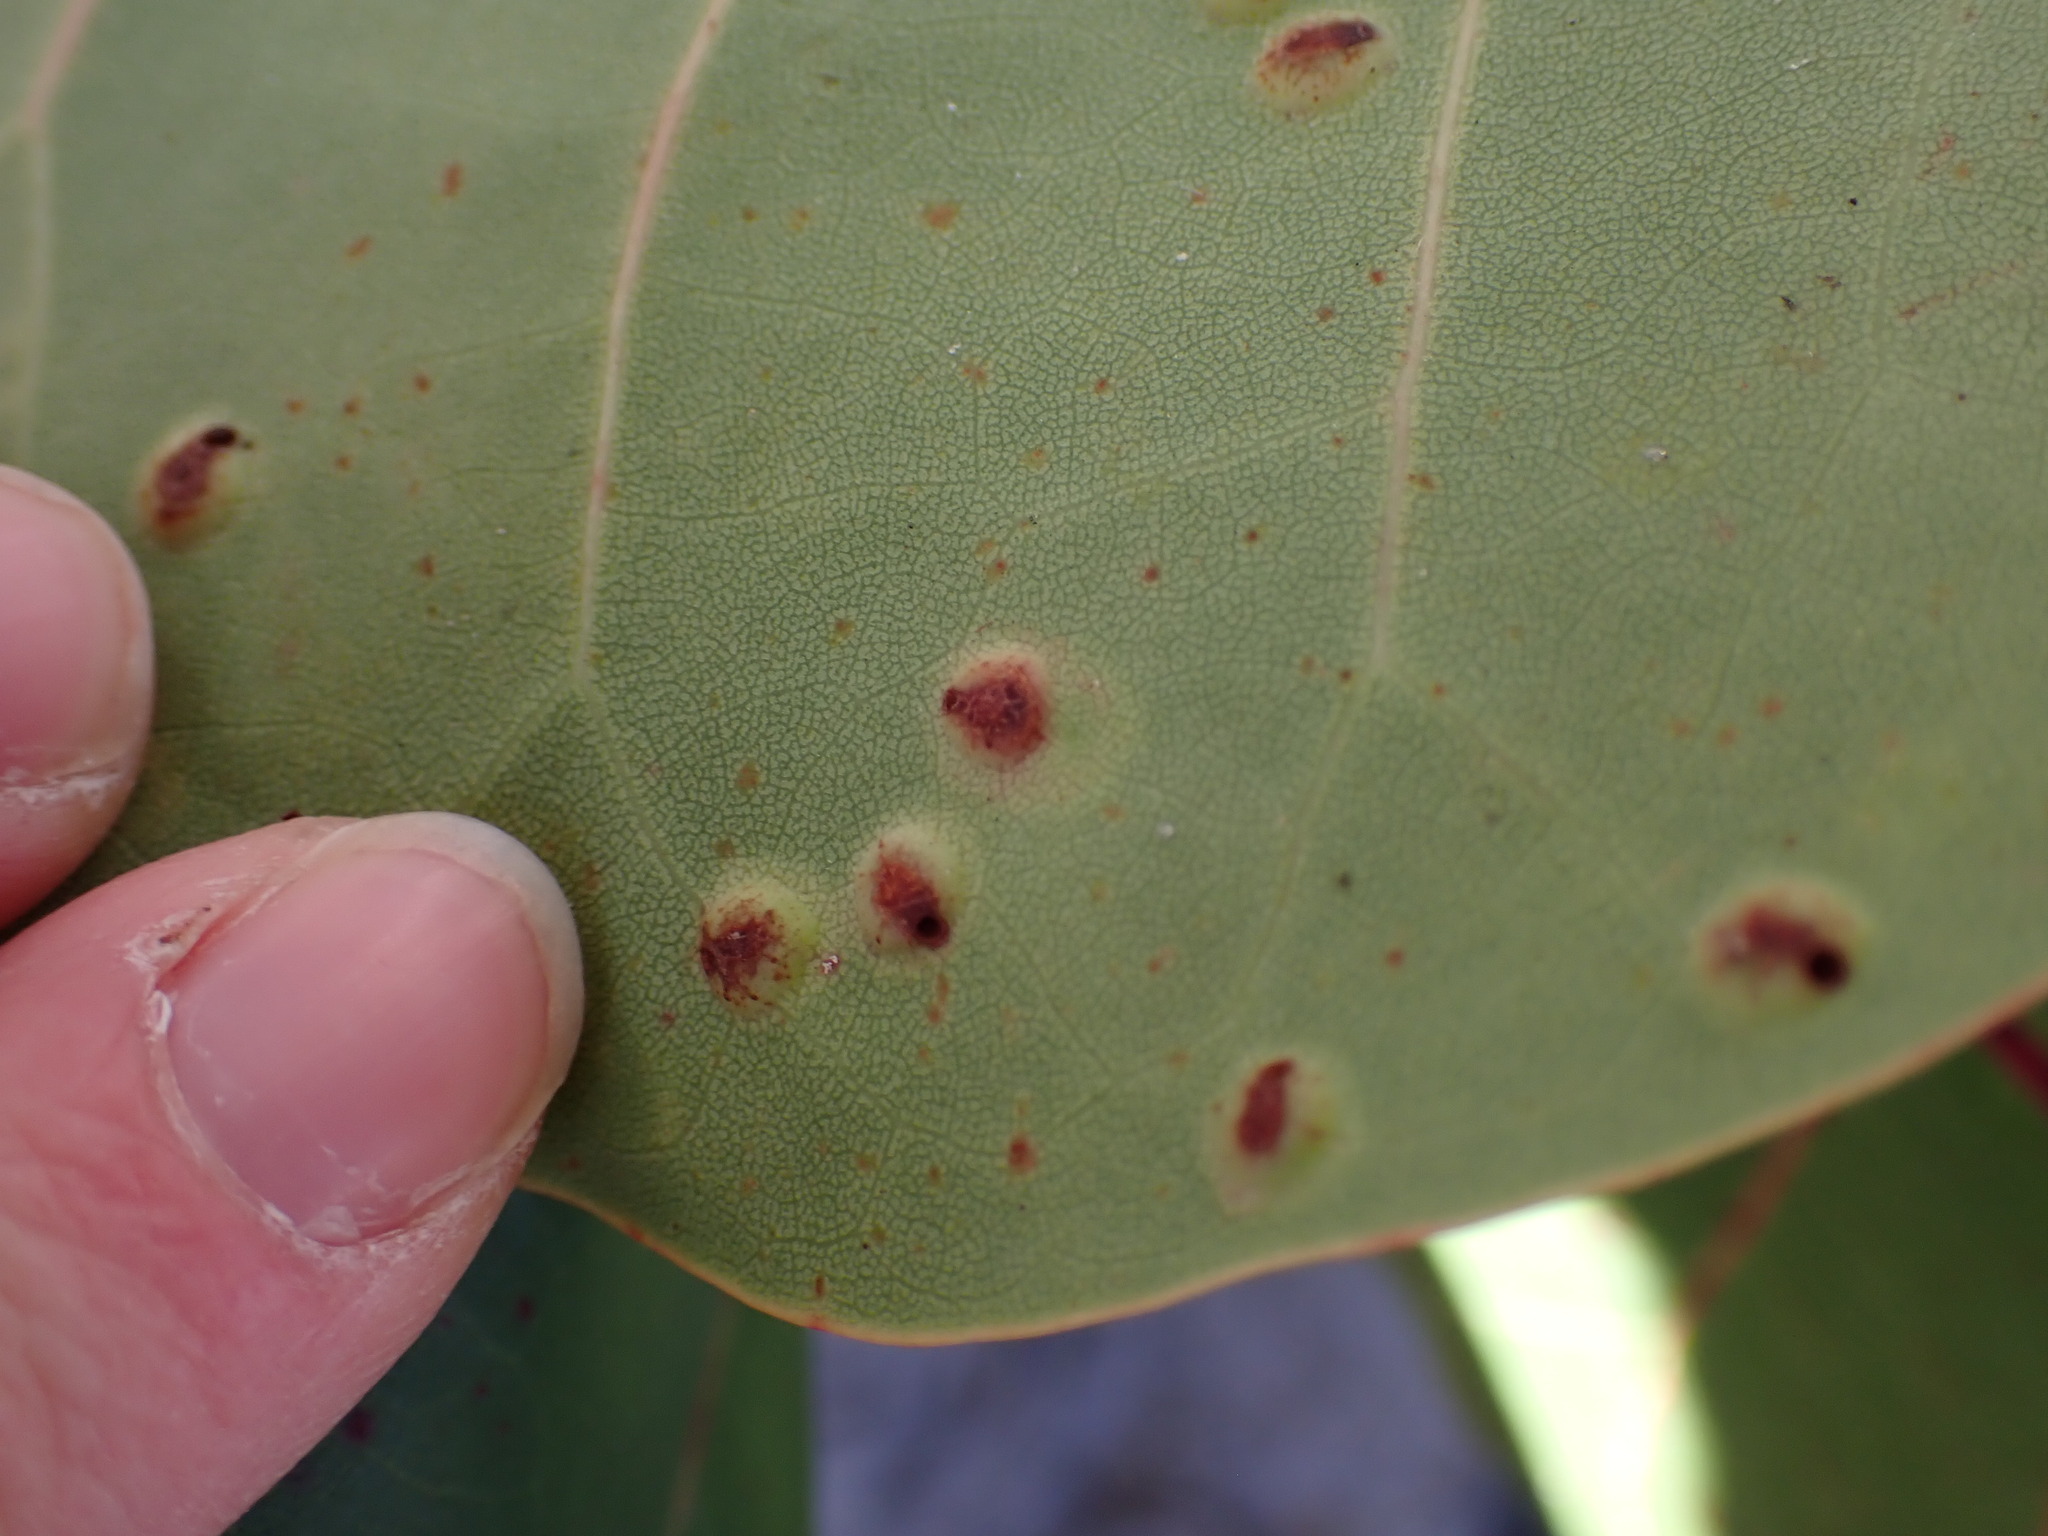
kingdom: Animalia
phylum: Arthropoda
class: Insecta
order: Diptera
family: Cecidomyiidae
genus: Ctenodactylomyia
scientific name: Ctenodactylomyia watsoni
